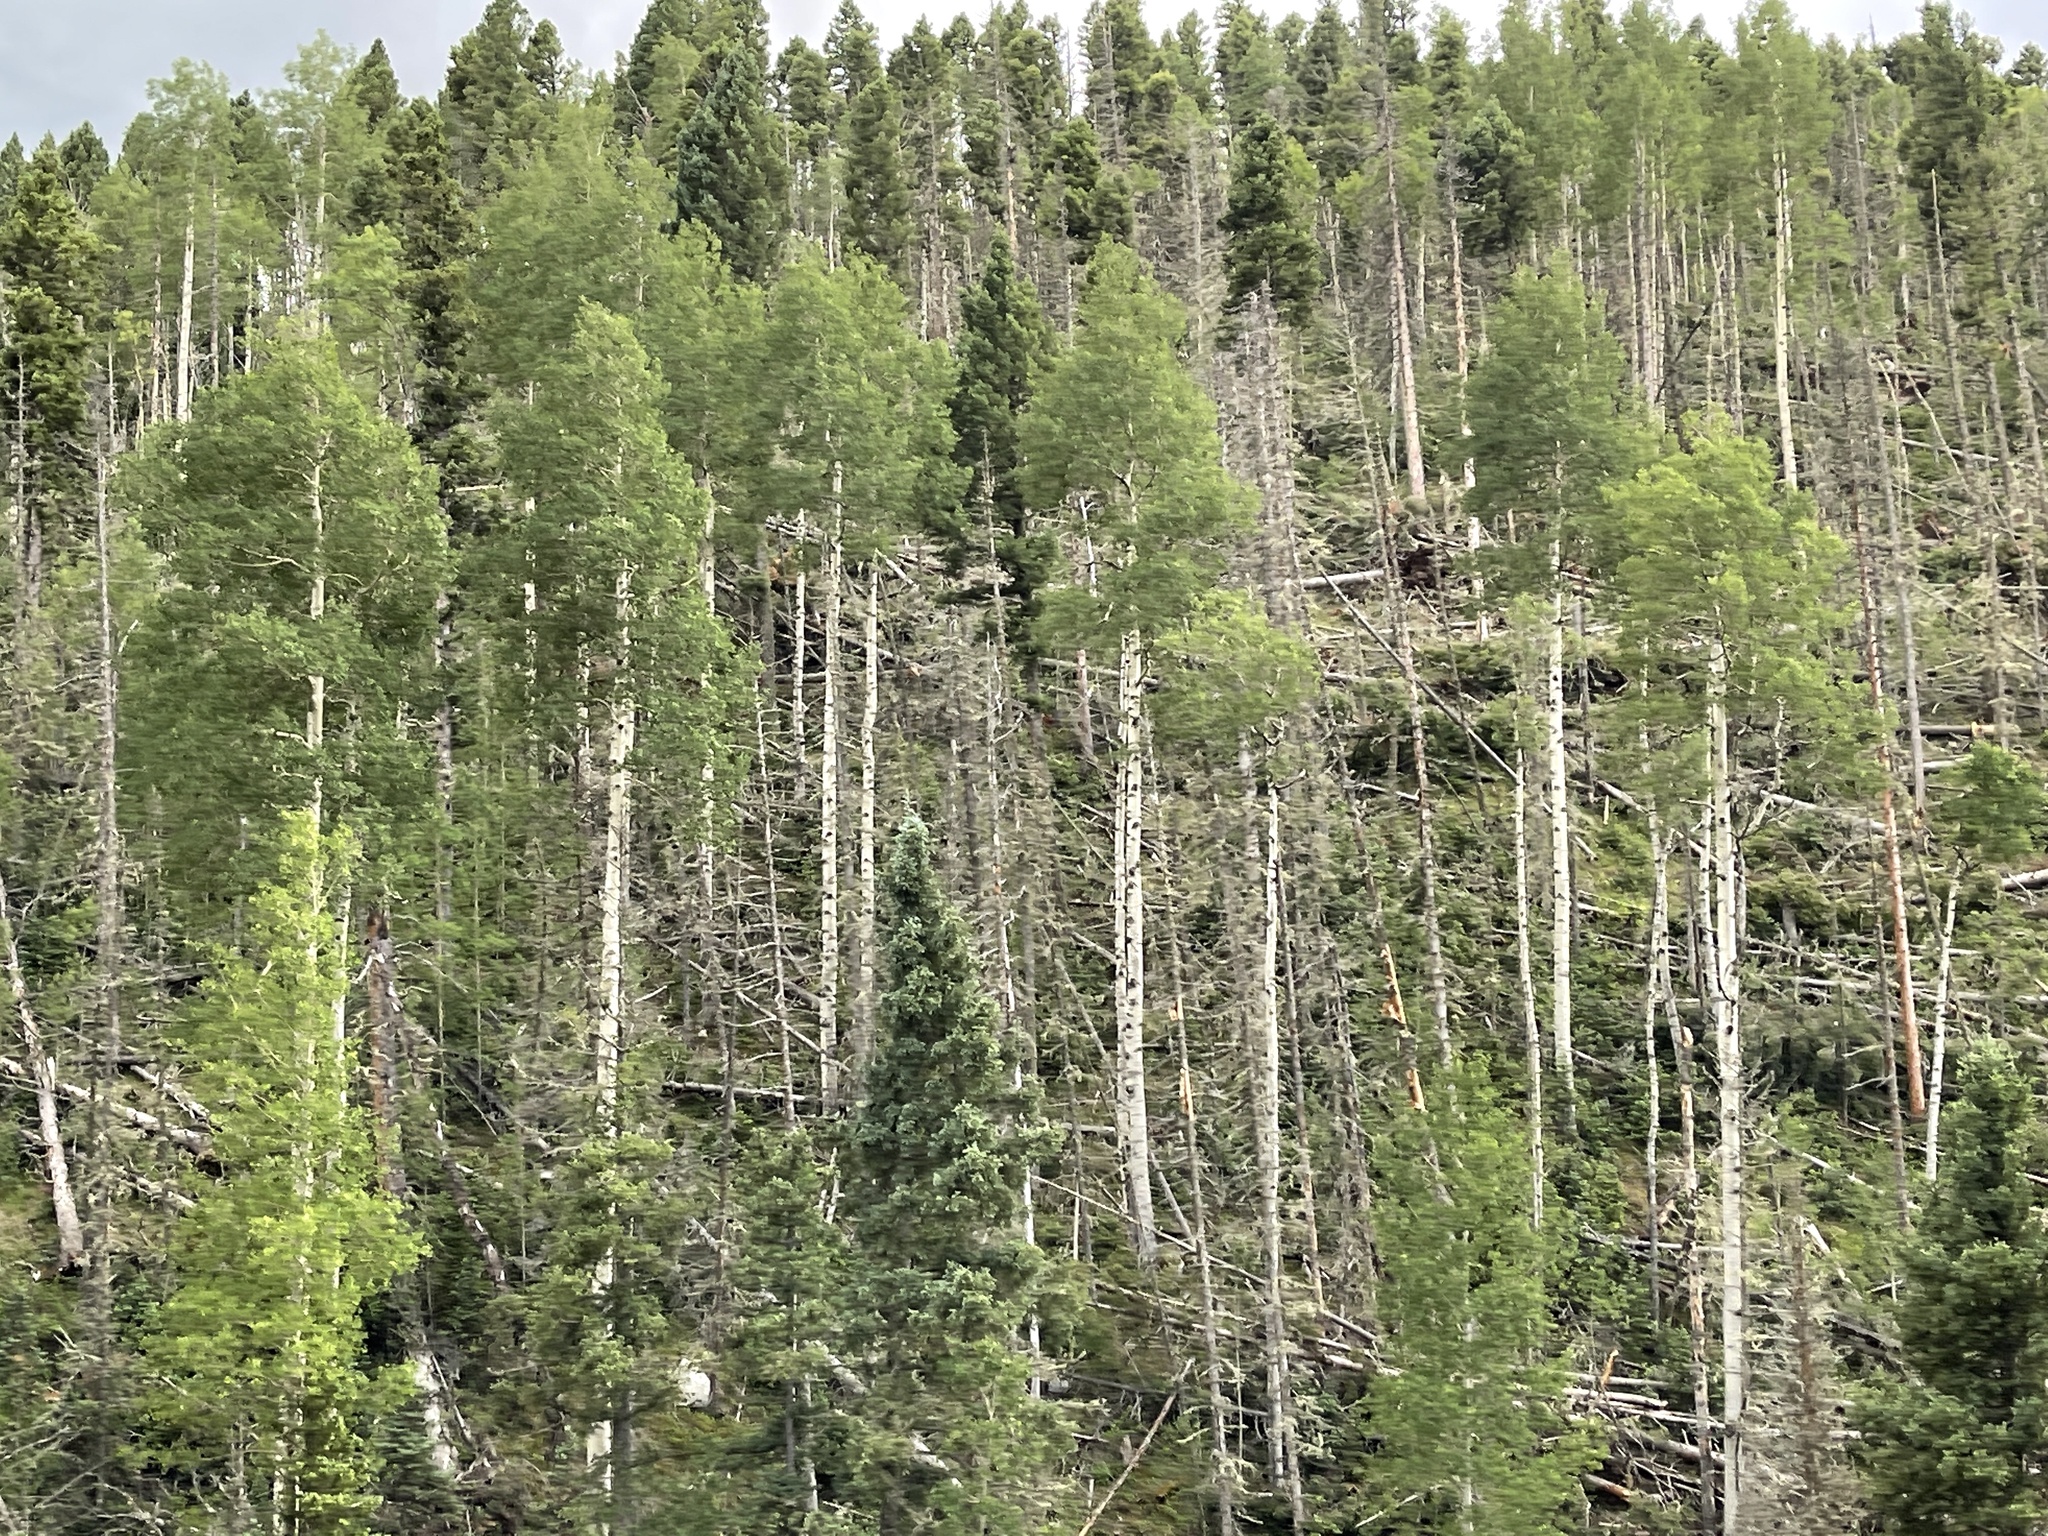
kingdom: Plantae
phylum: Tracheophyta
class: Magnoliopsida
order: Malpighiales
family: Salicaceae
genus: Populus
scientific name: Populus tremuloides
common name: Quaking aspen
